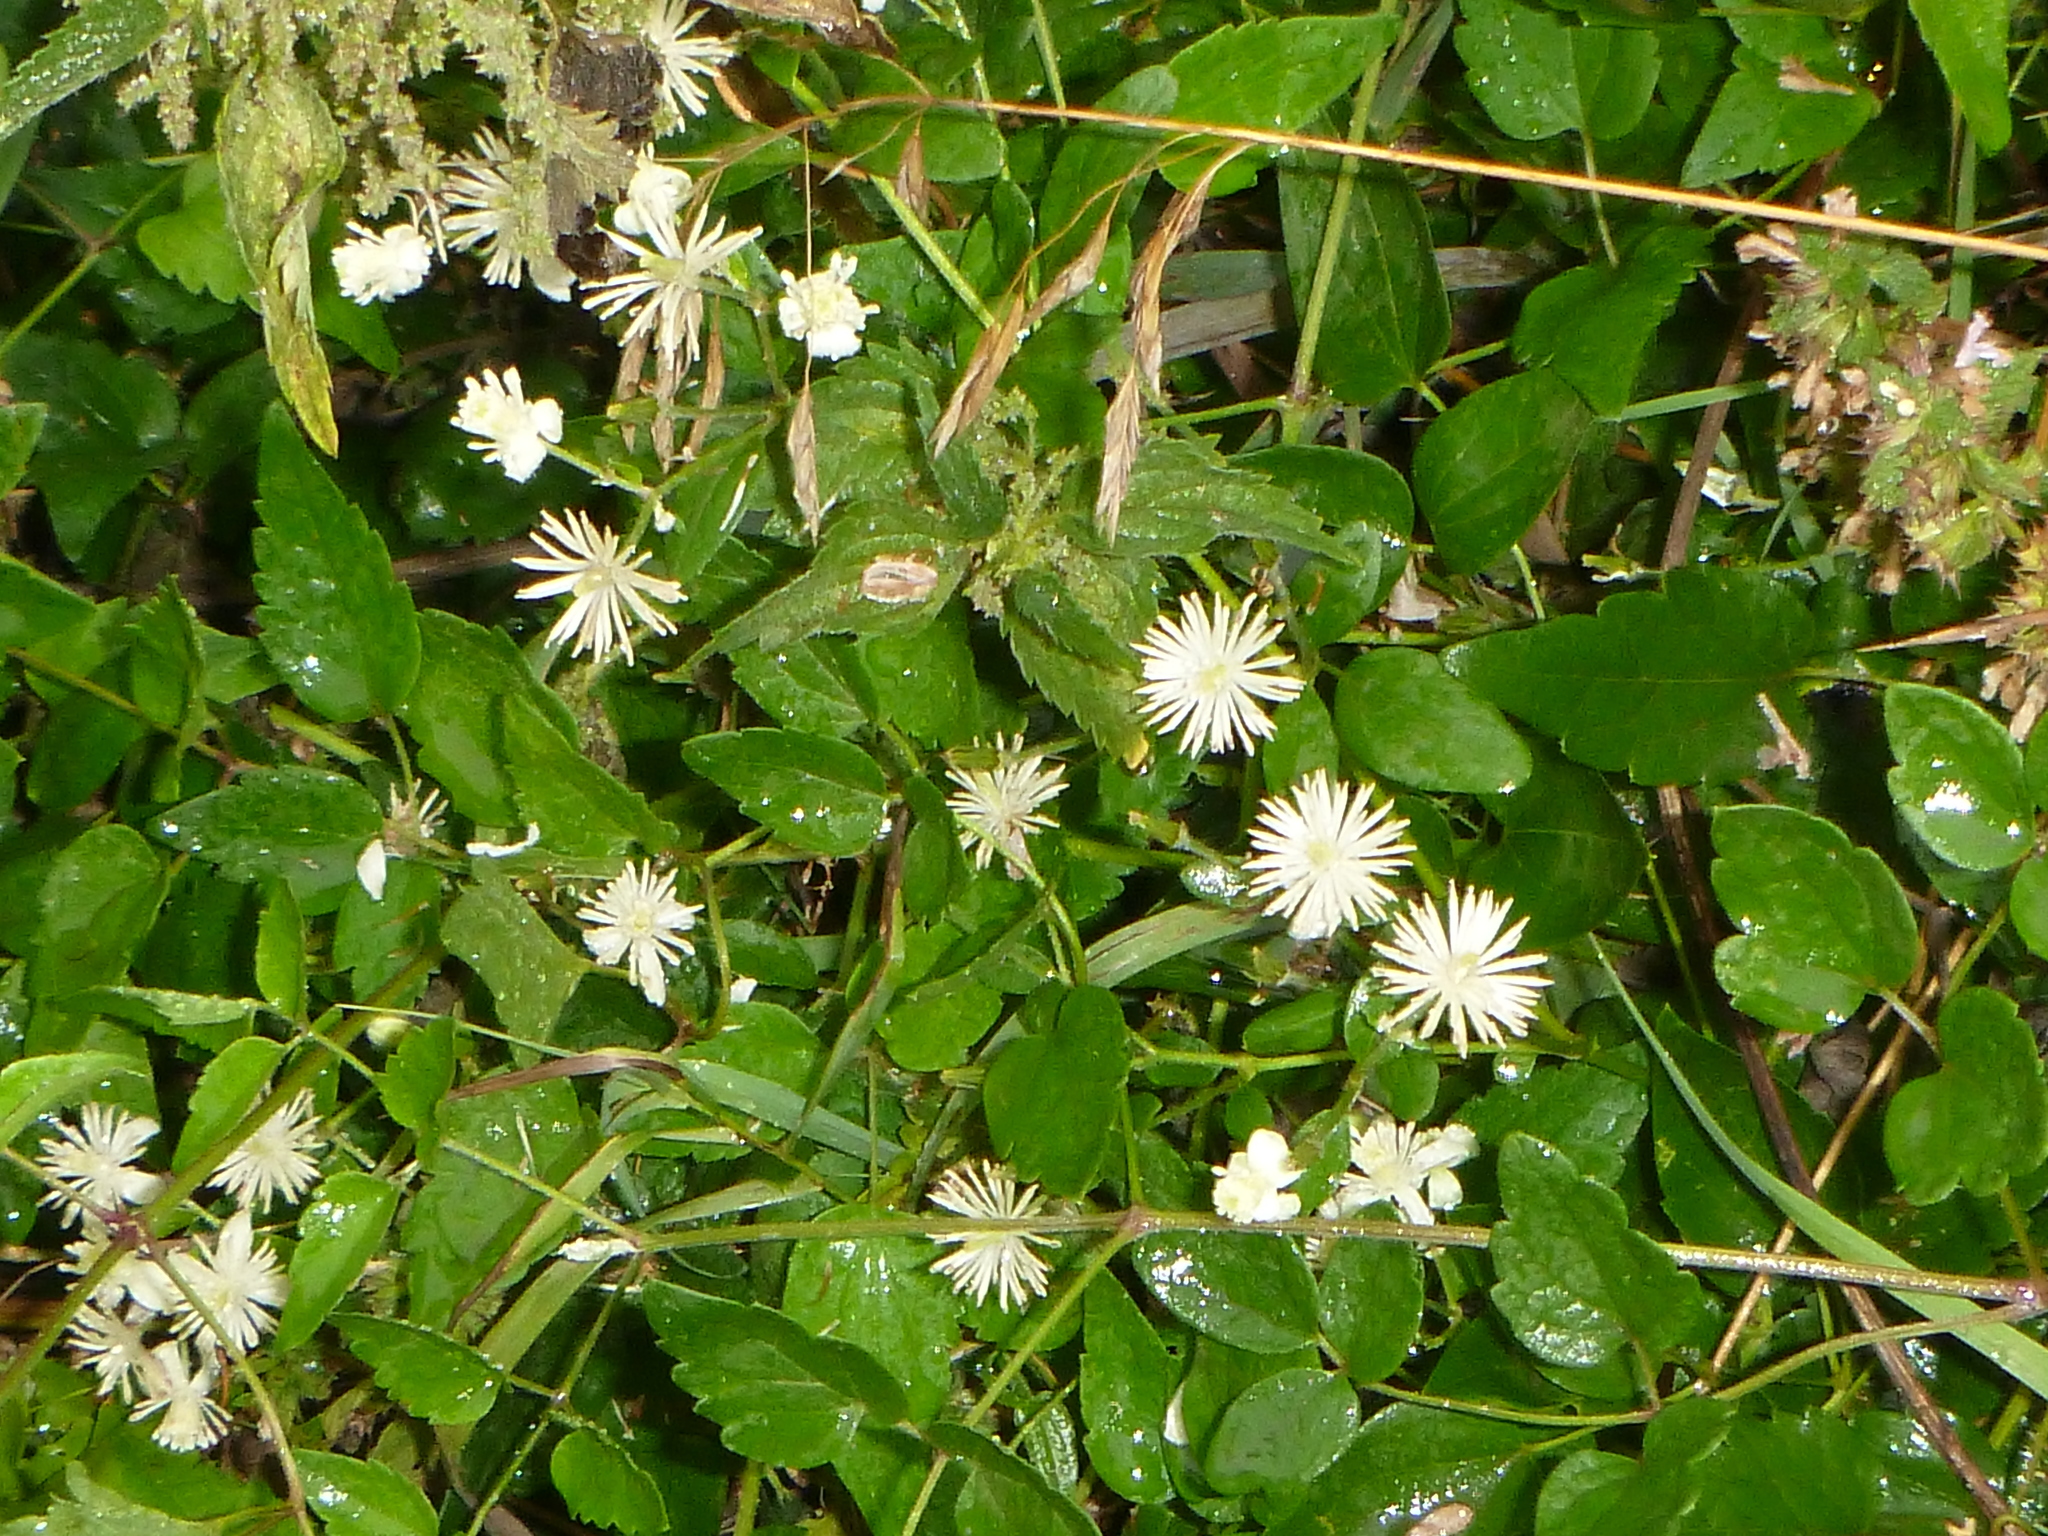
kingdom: Plantae
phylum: Tracheophyta
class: Magnoliopsida
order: Ranunculales
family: Ranunculaceae
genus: Clematis
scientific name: Clematis vitalba
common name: Evergreen clematis
